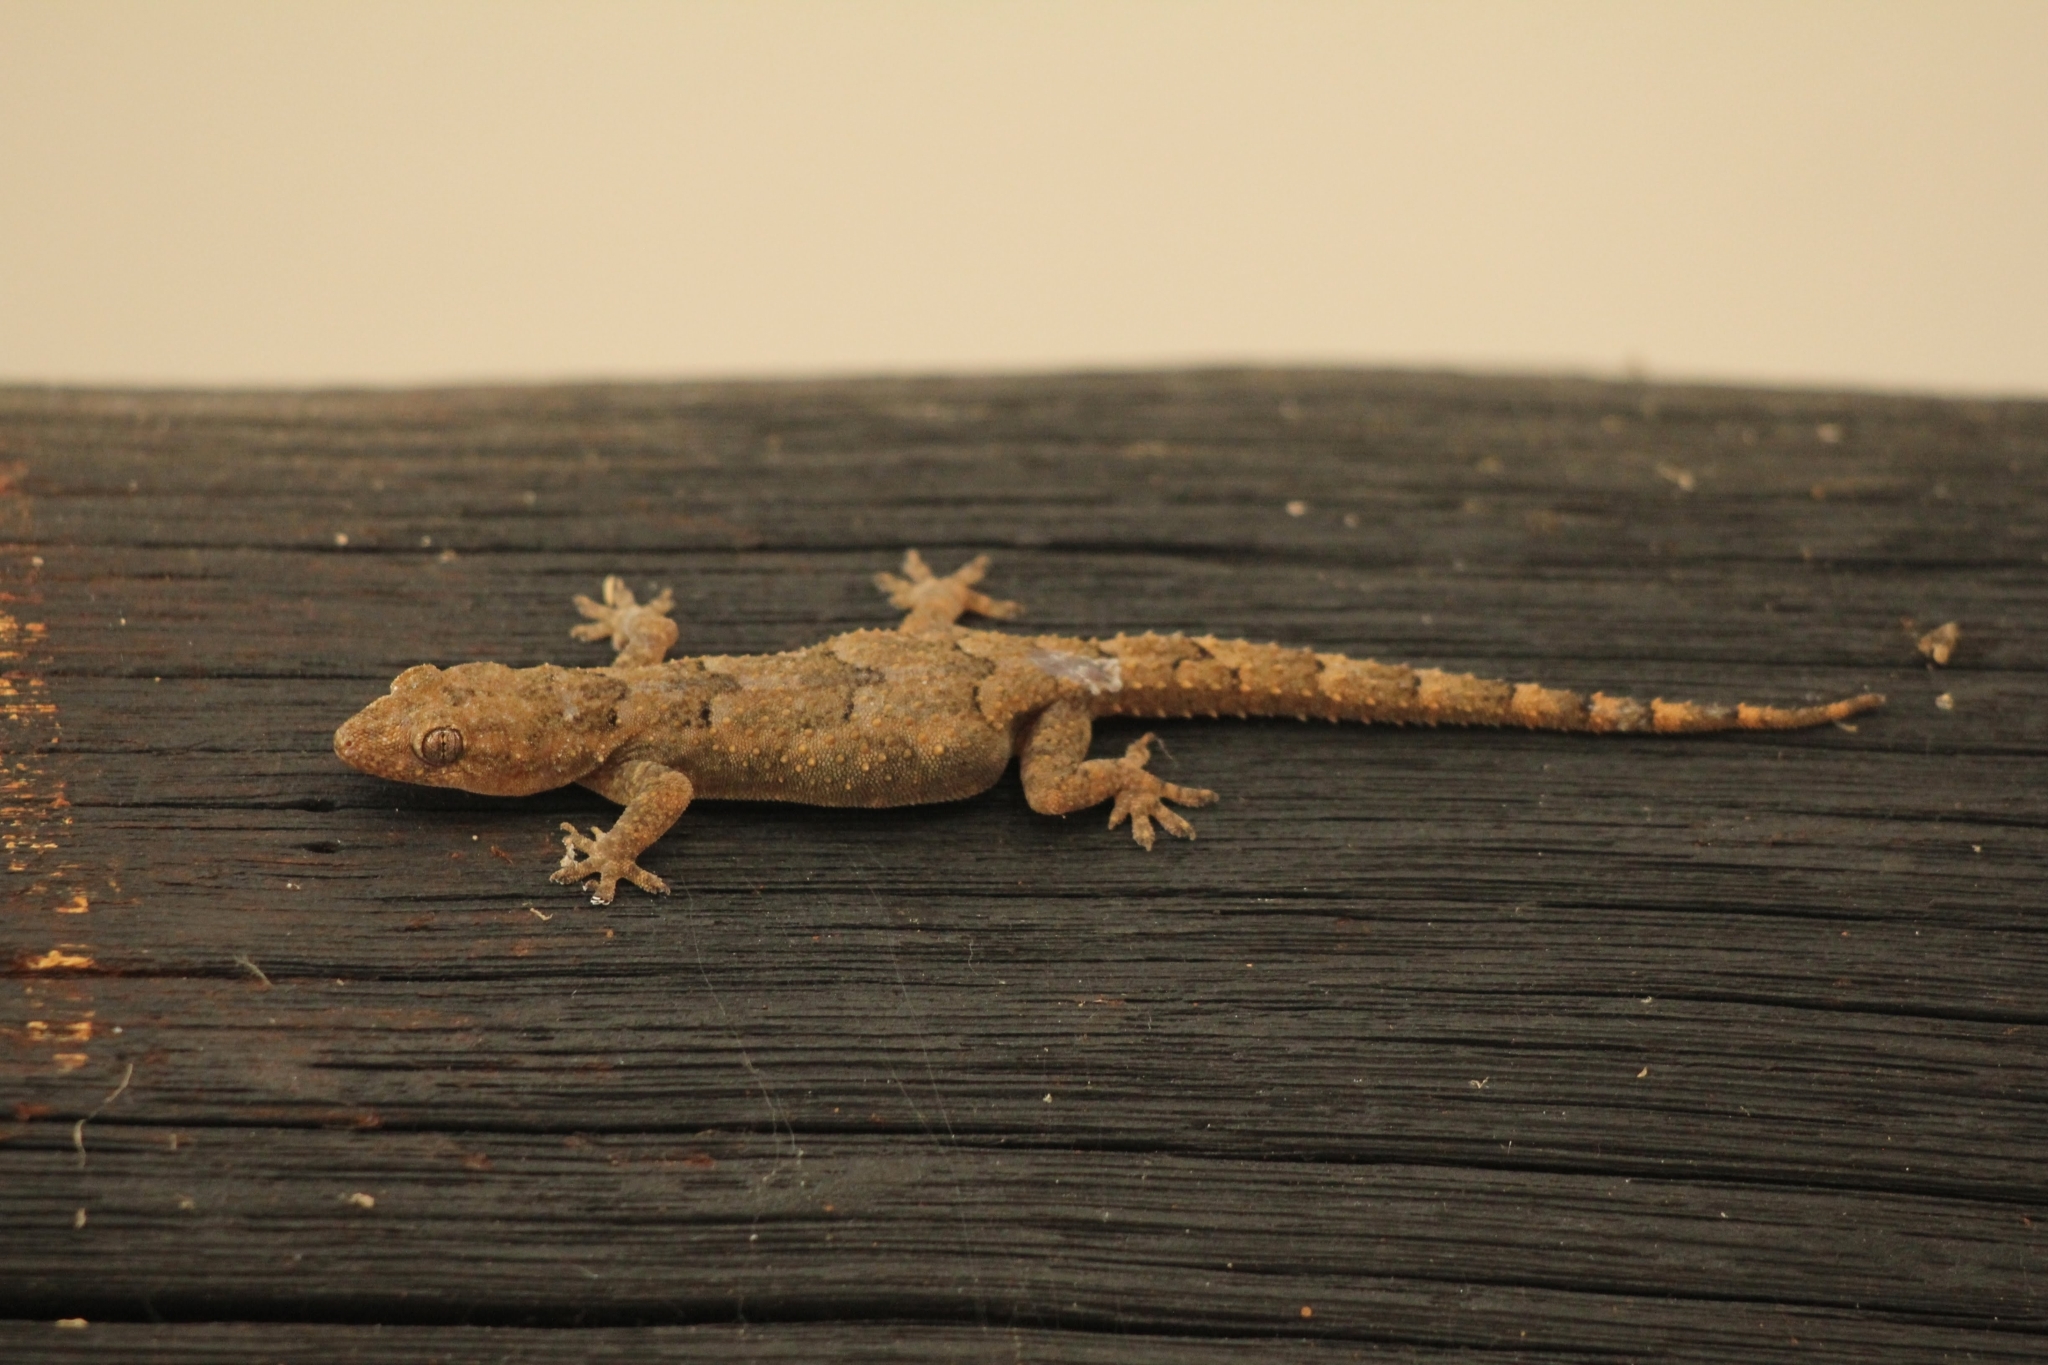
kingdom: Animalia
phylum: Chordata
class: Squamata
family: Gekkonidae
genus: Hemidactylus
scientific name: Hemidactylus mabouia
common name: House gecko
